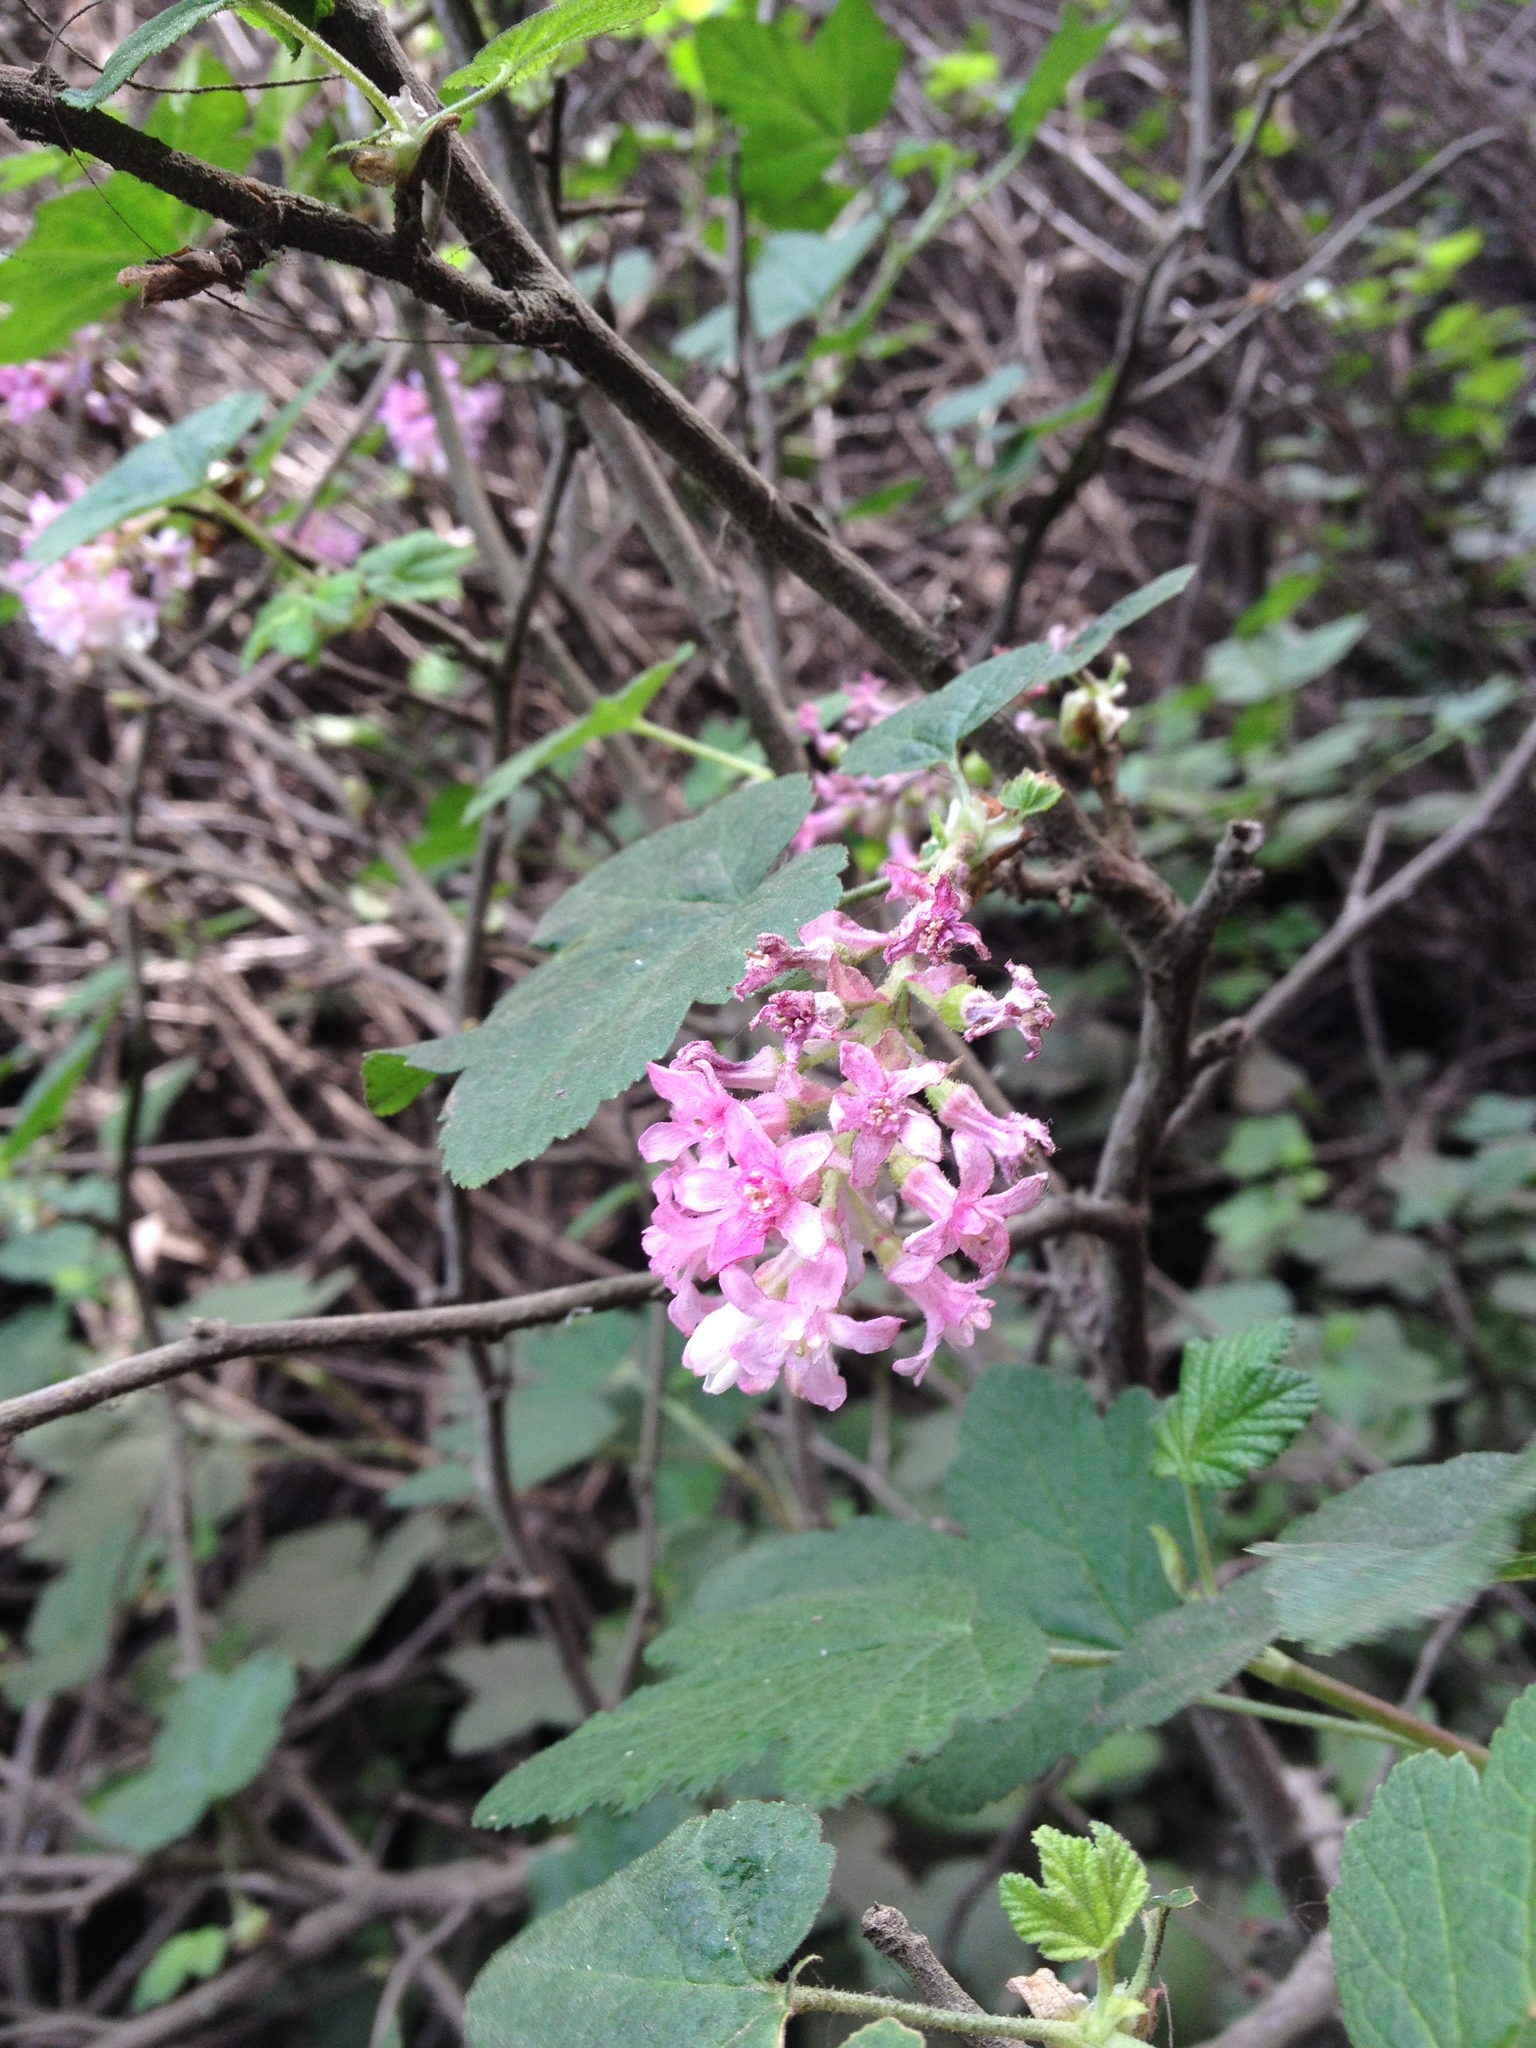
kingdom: Plantae
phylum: Tracheophyta
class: Magnoliopsida
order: Saxifragales
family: Grossulariaceae
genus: Ribes
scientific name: Ribes sanguineum
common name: Flowering currant
